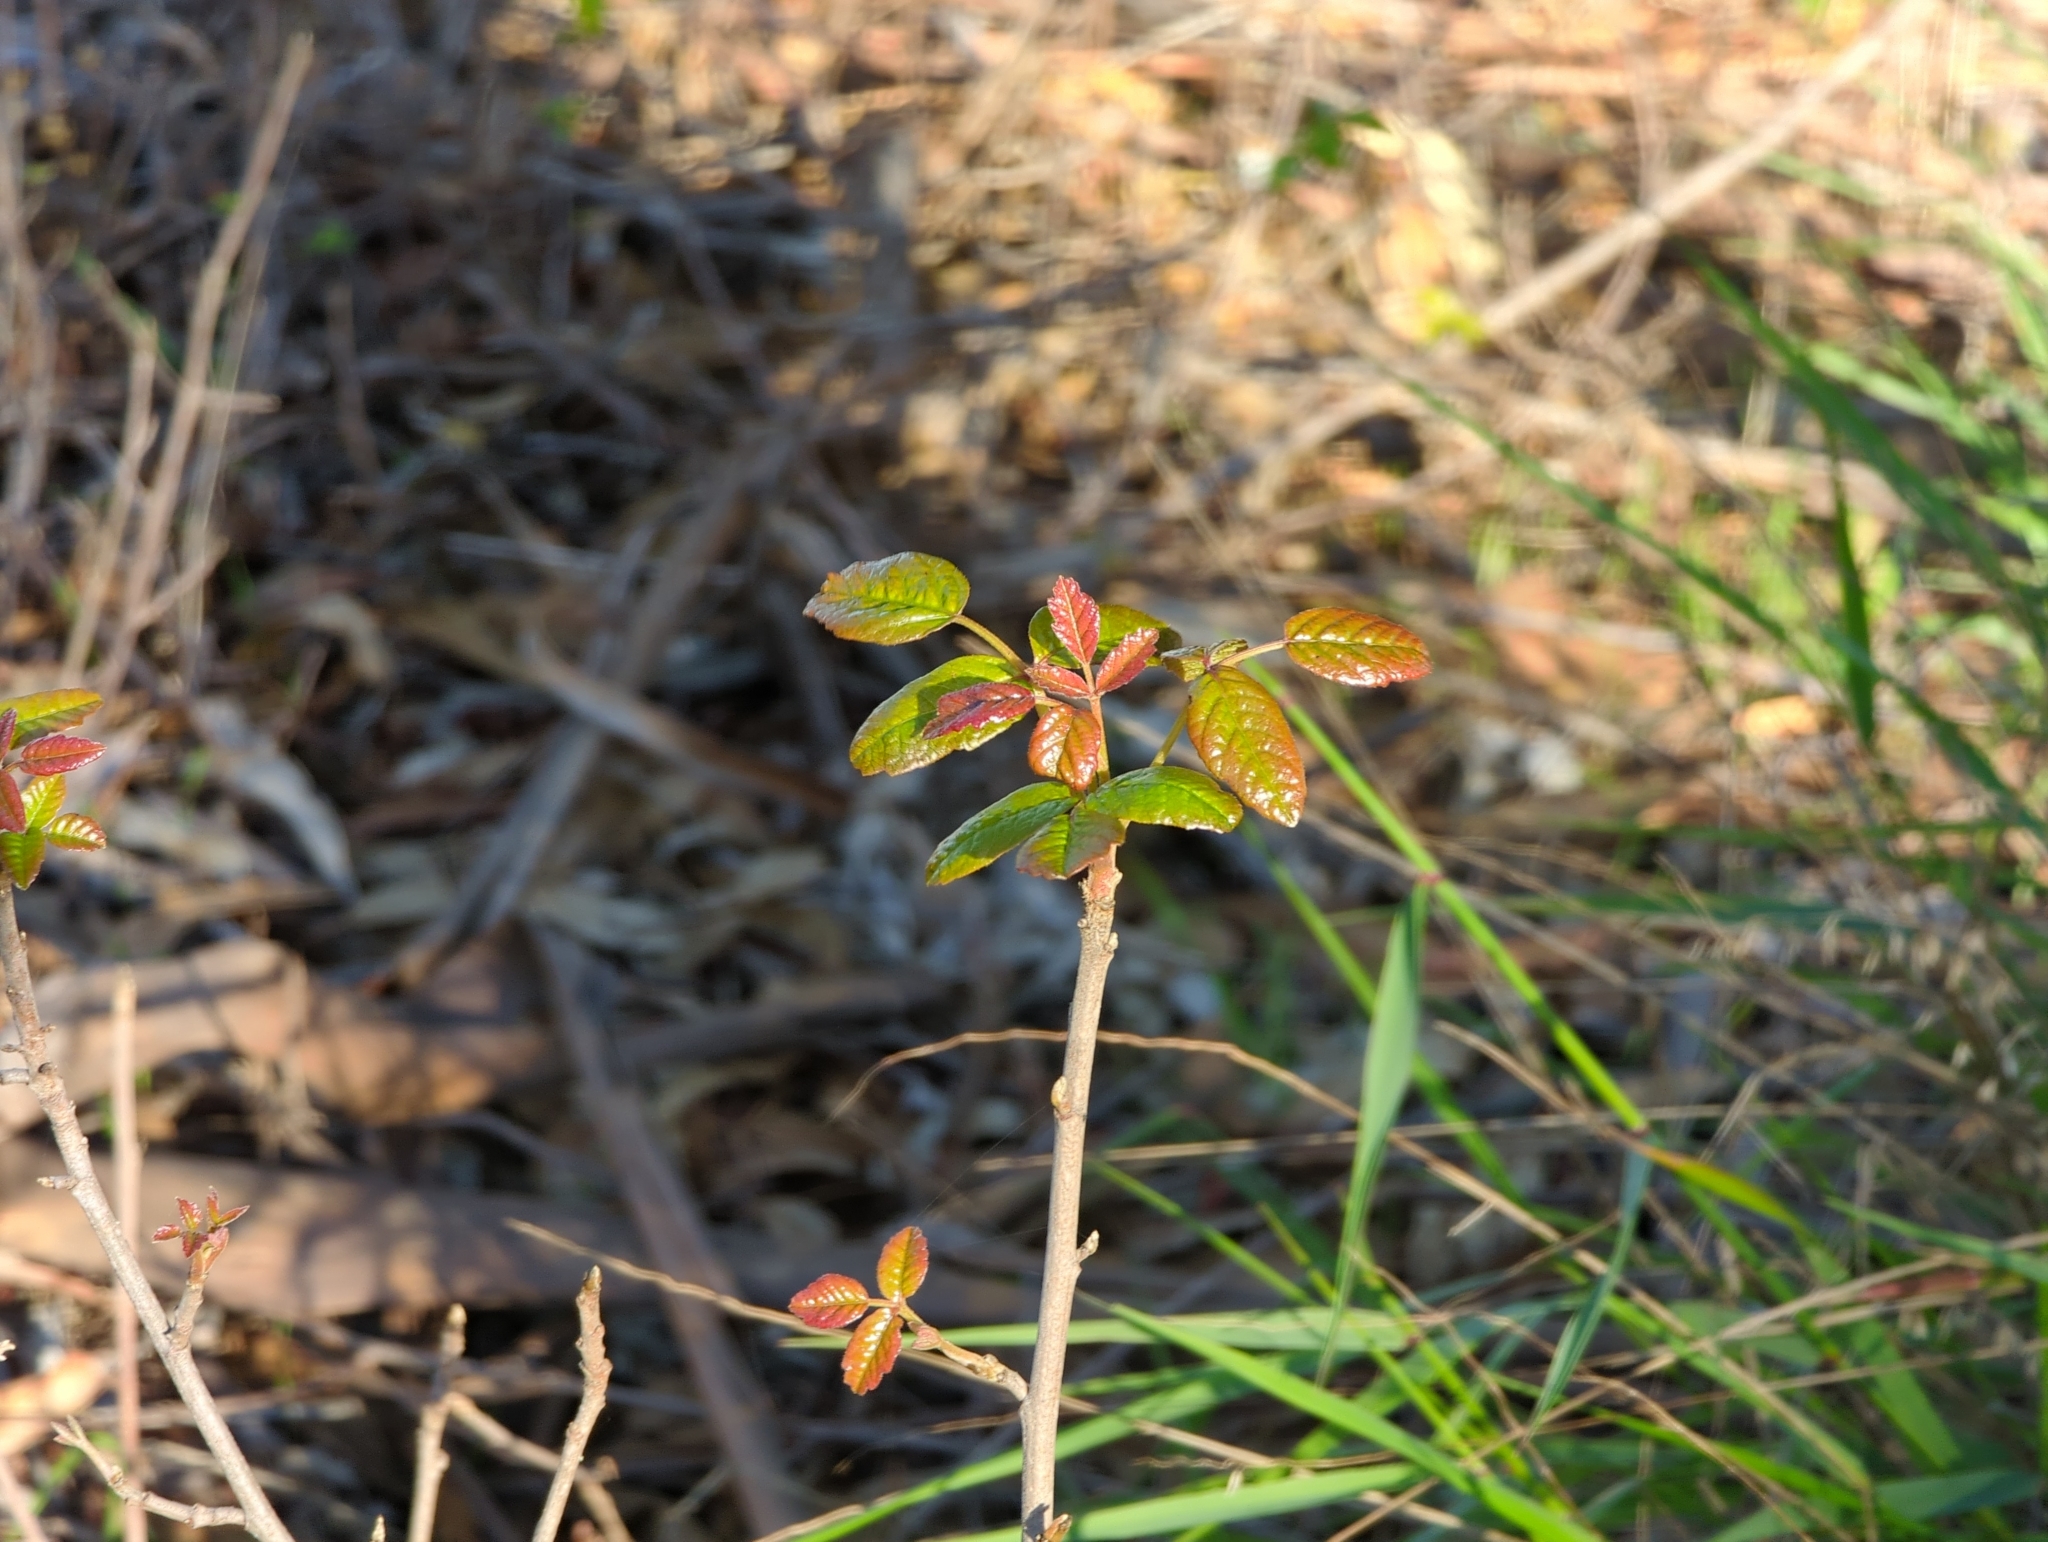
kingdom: Plantae
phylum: Tracheophyta
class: Magnoliopsida
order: Sapindales
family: Anacardiaceae
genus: Toxicodendron
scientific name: Toxicodendron diversilobum
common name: Pacific poison-oak
